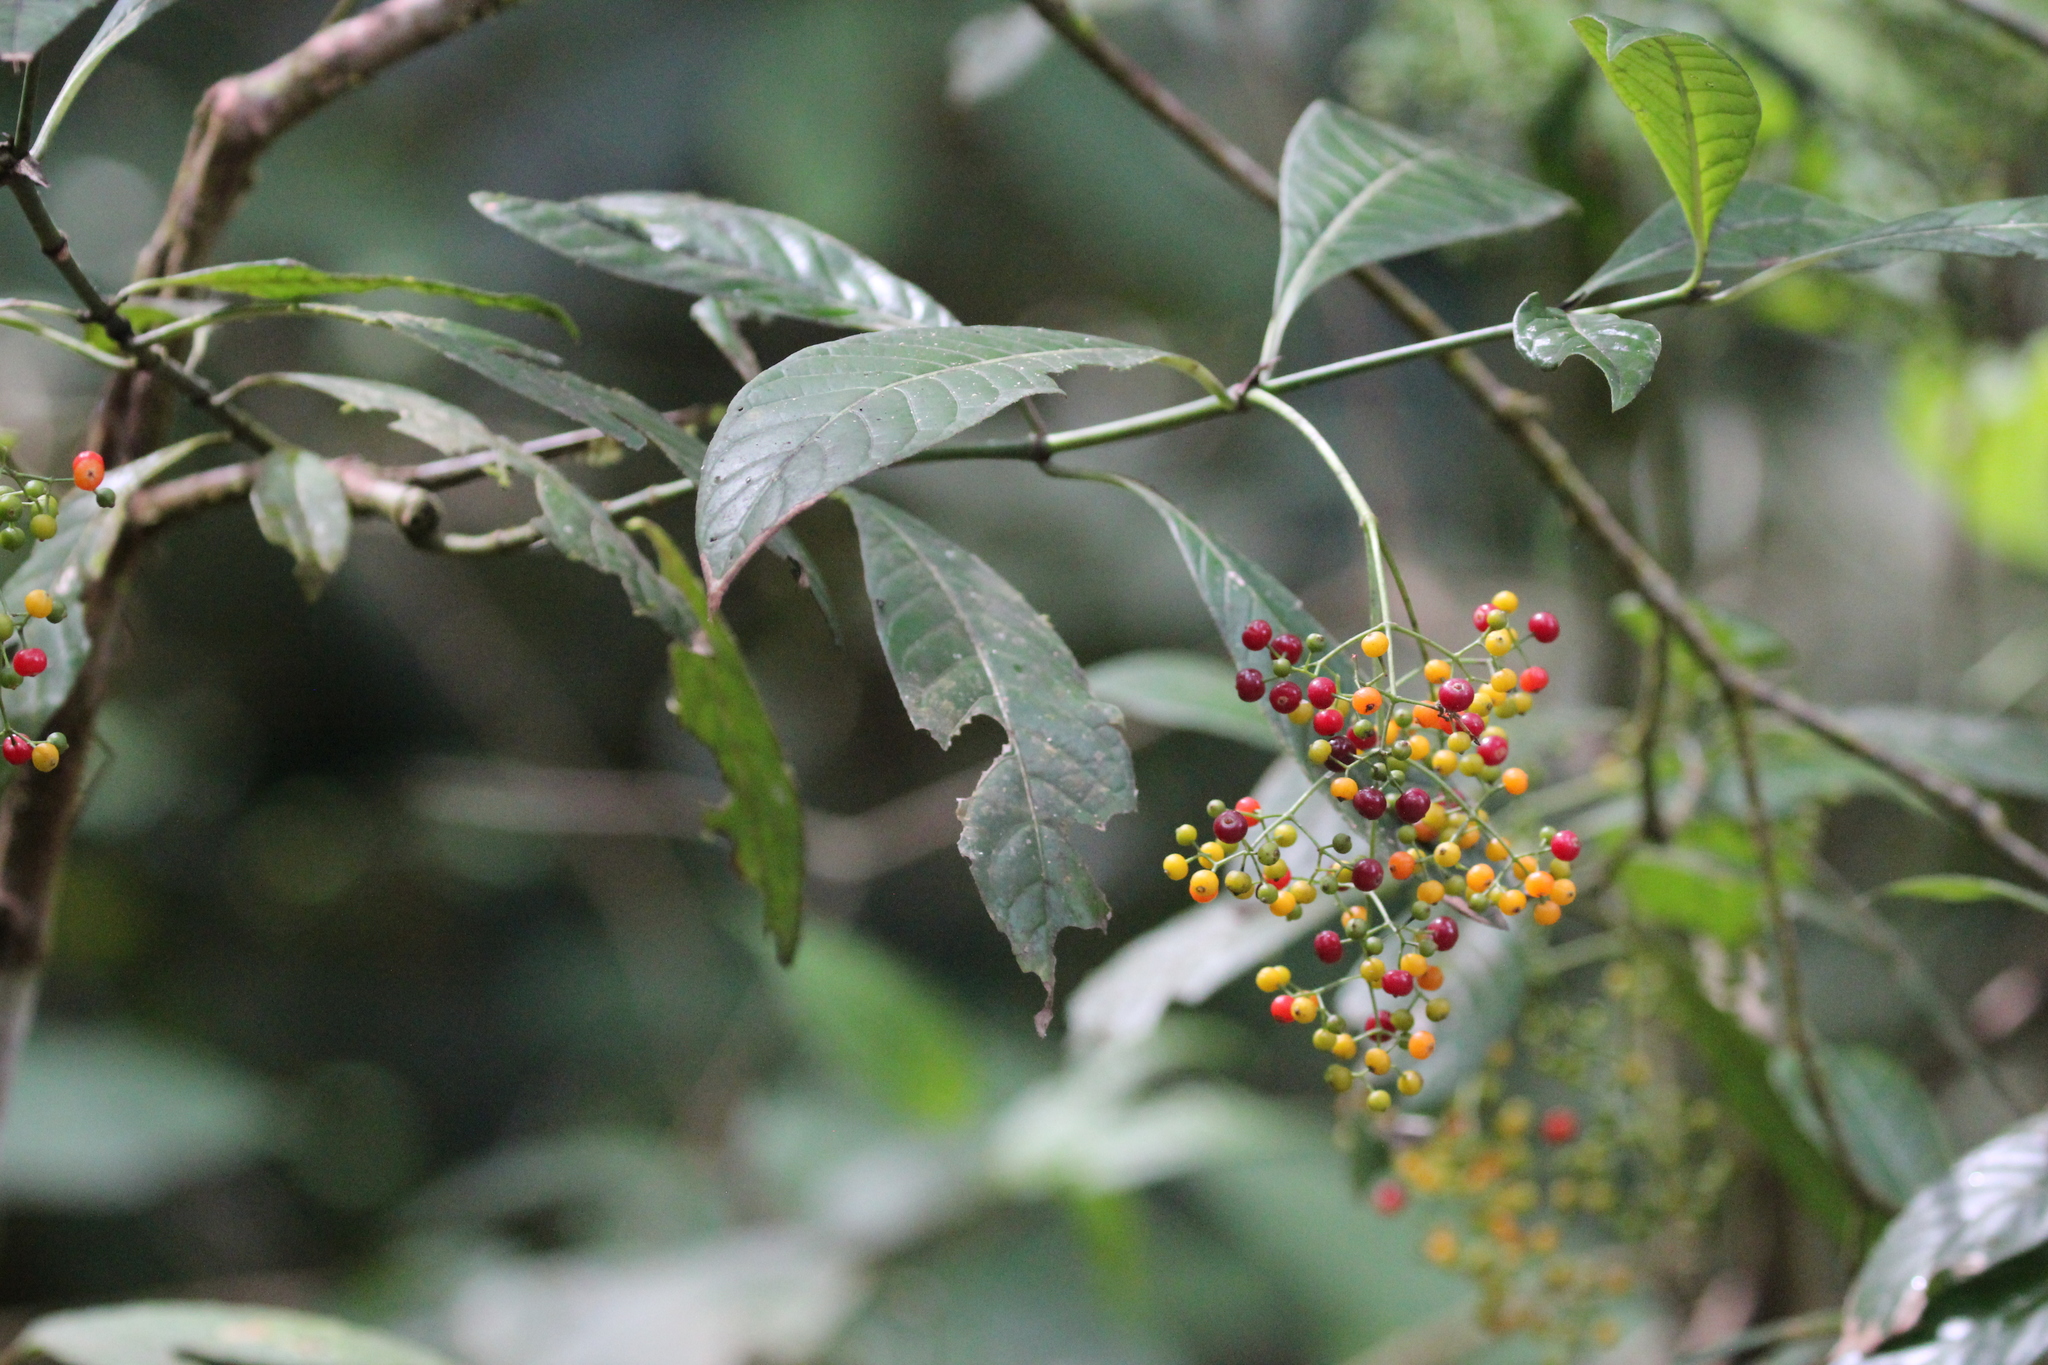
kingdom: Plantae
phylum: Tracheophyta
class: Magnoliopsida
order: Gentianales
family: Rubiaceae
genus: Psychotria
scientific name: Psychotria marginata
